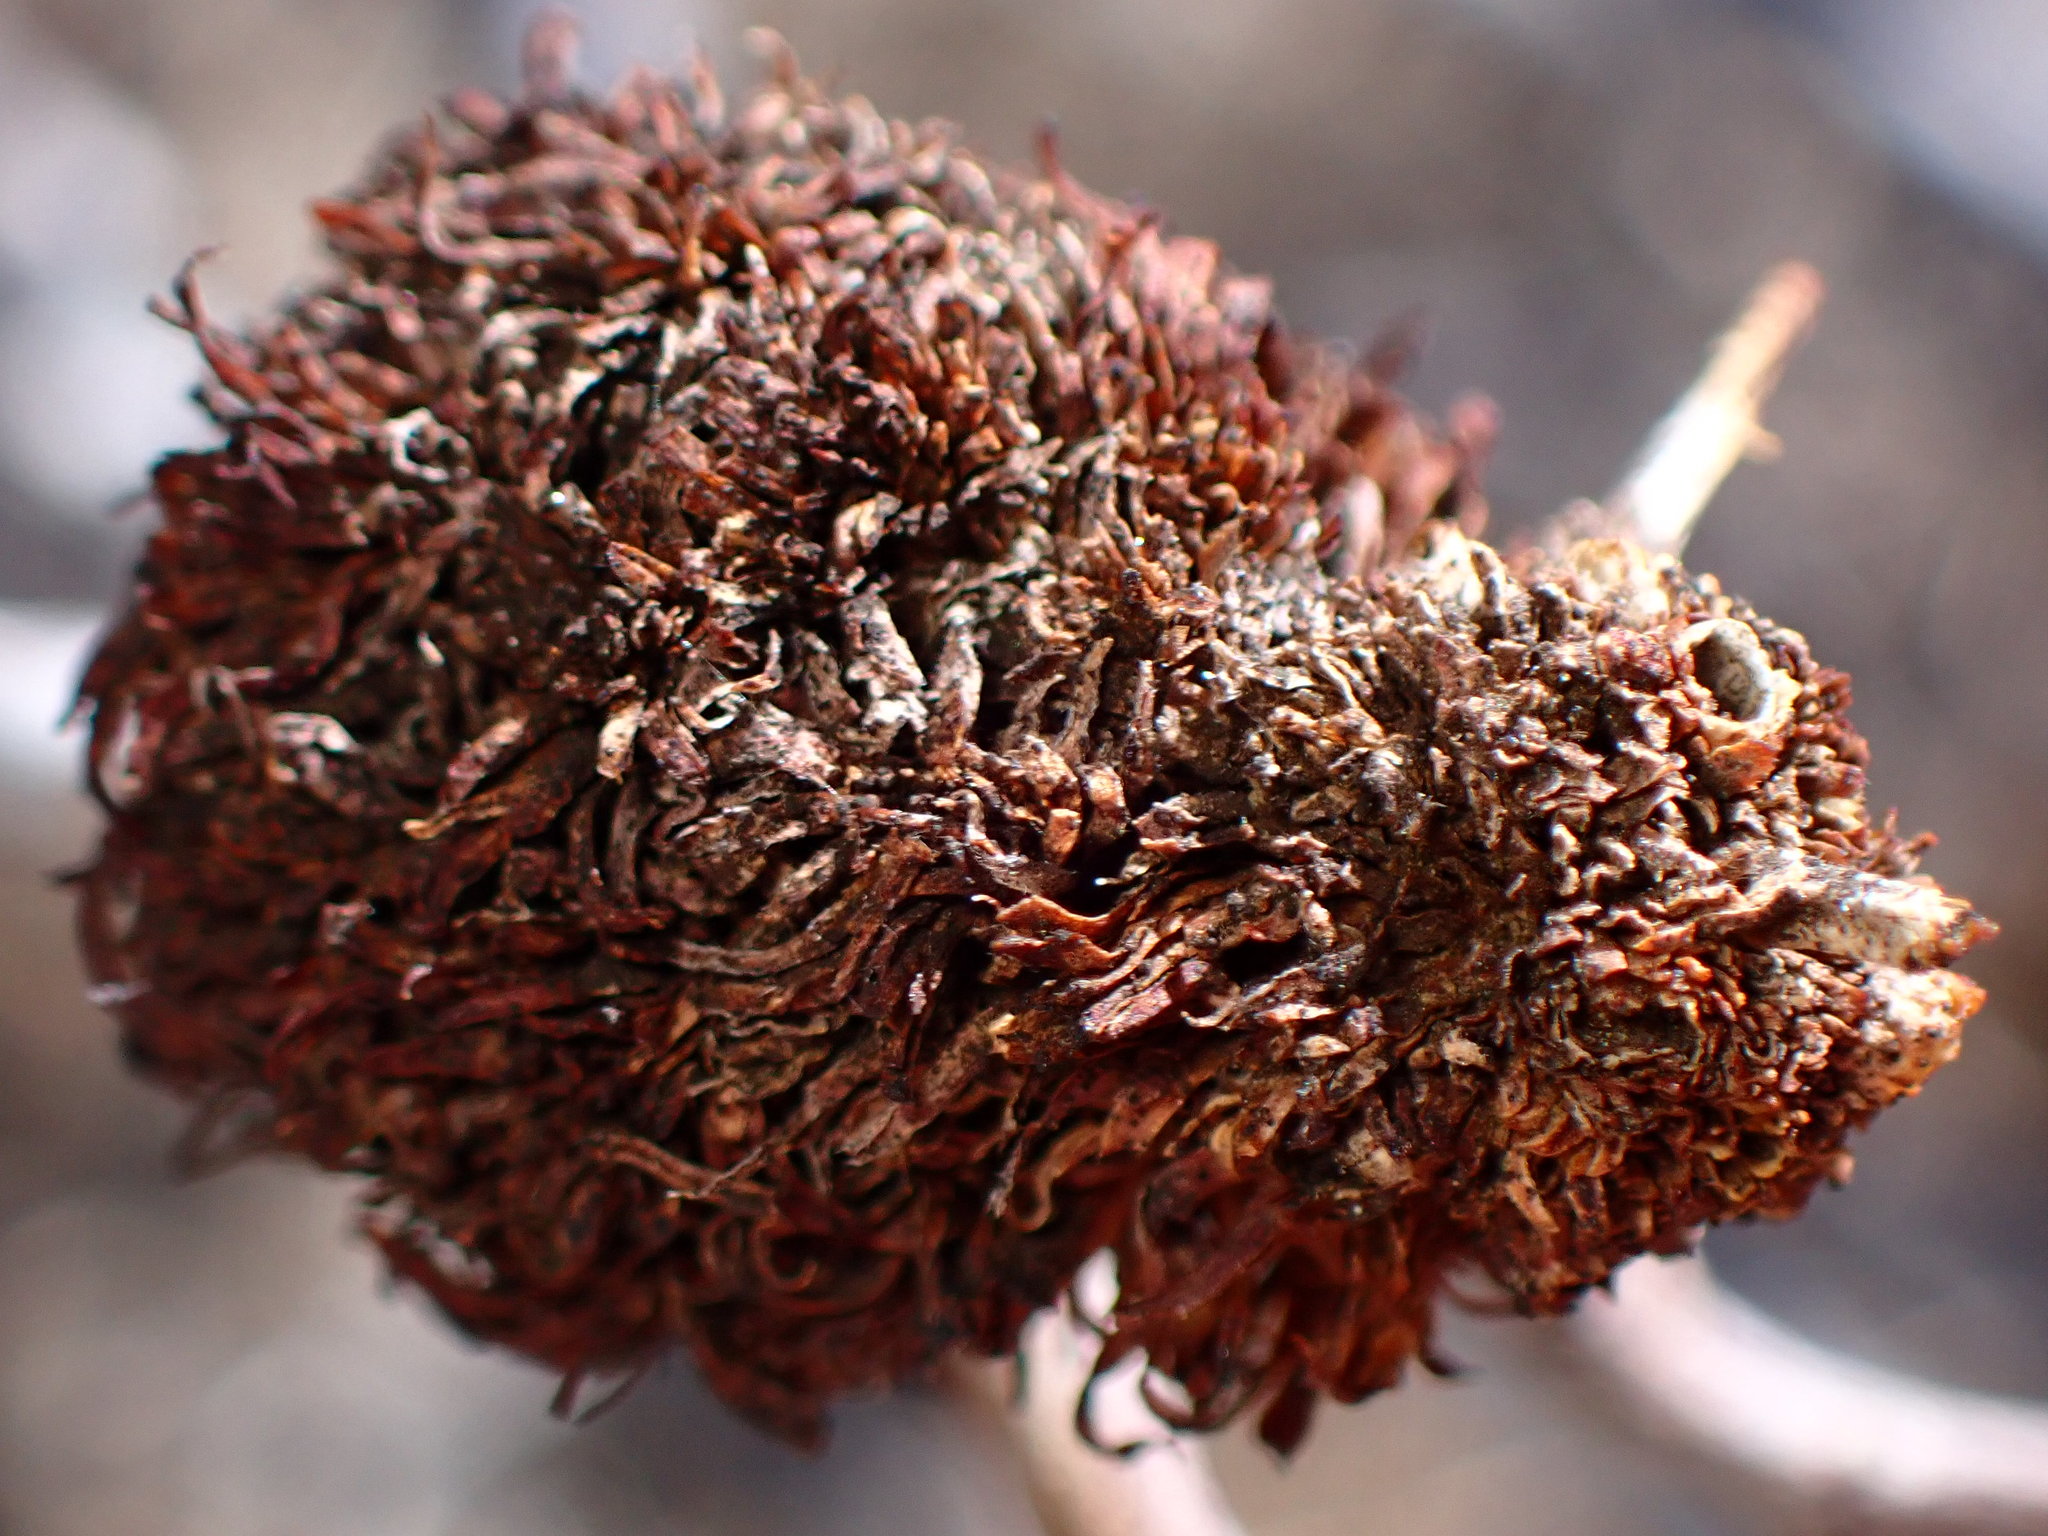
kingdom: Animalia
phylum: Arthropoda
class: Insecta
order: Diptera
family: Cecidomyiidae
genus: Asphondylia
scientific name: Asphondylia auripila
